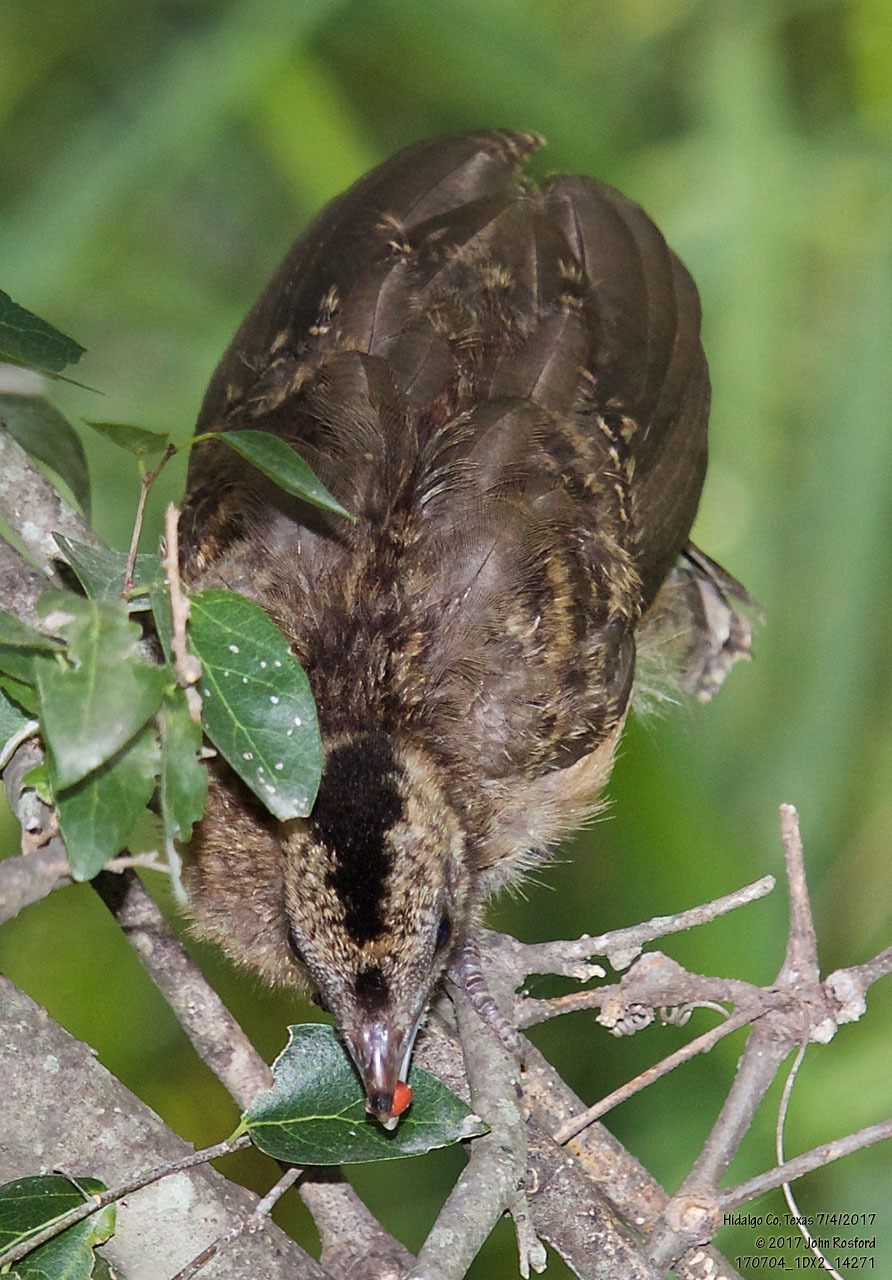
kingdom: Animalia
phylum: Chordata
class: Aves
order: Galliformes
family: Cracidae
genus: Ortalis
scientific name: Ortalis vetula
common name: Plain chachalaca
